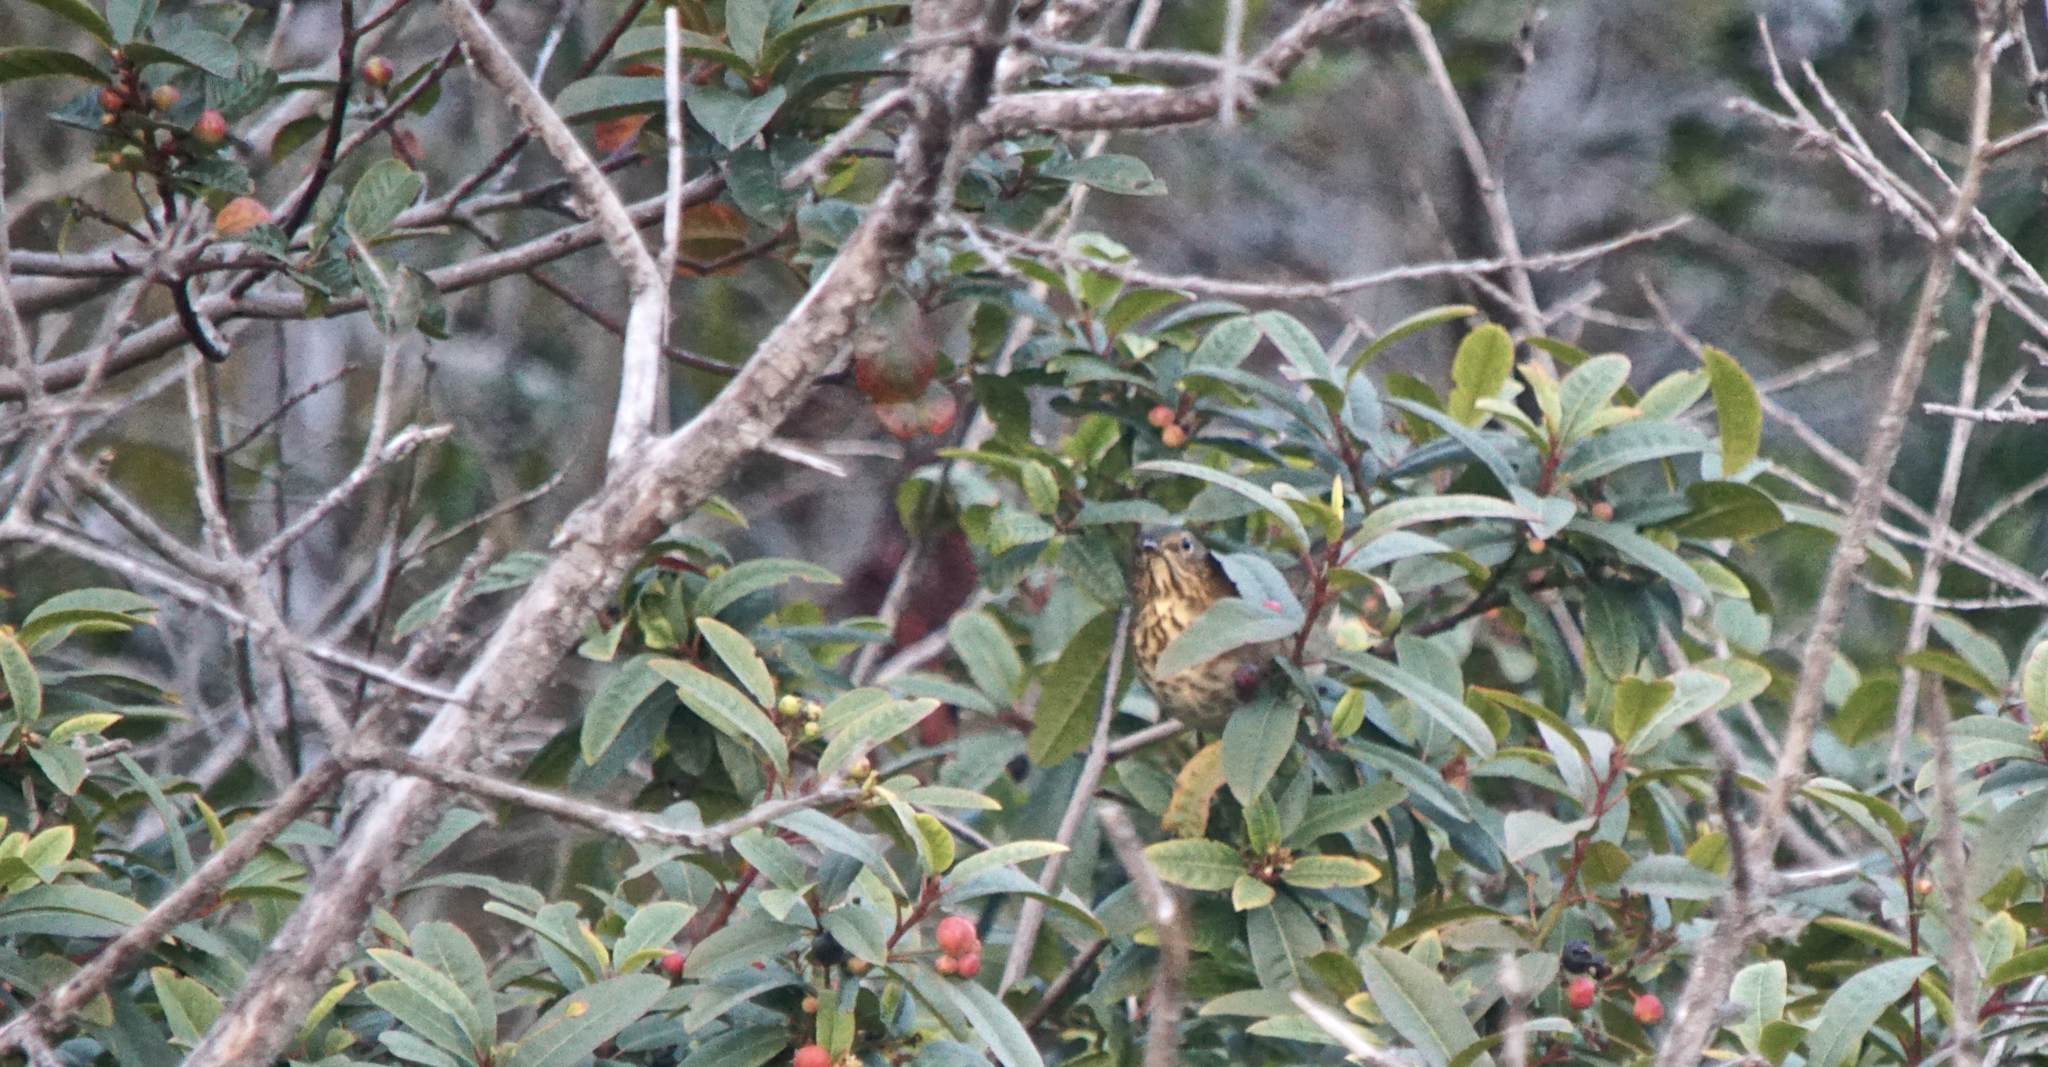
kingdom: Animalia
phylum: Chordata
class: Aves
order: Passeriformes
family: Turdidae
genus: Catharus
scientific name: Catharus ustulatus
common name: Swainson's thrush
